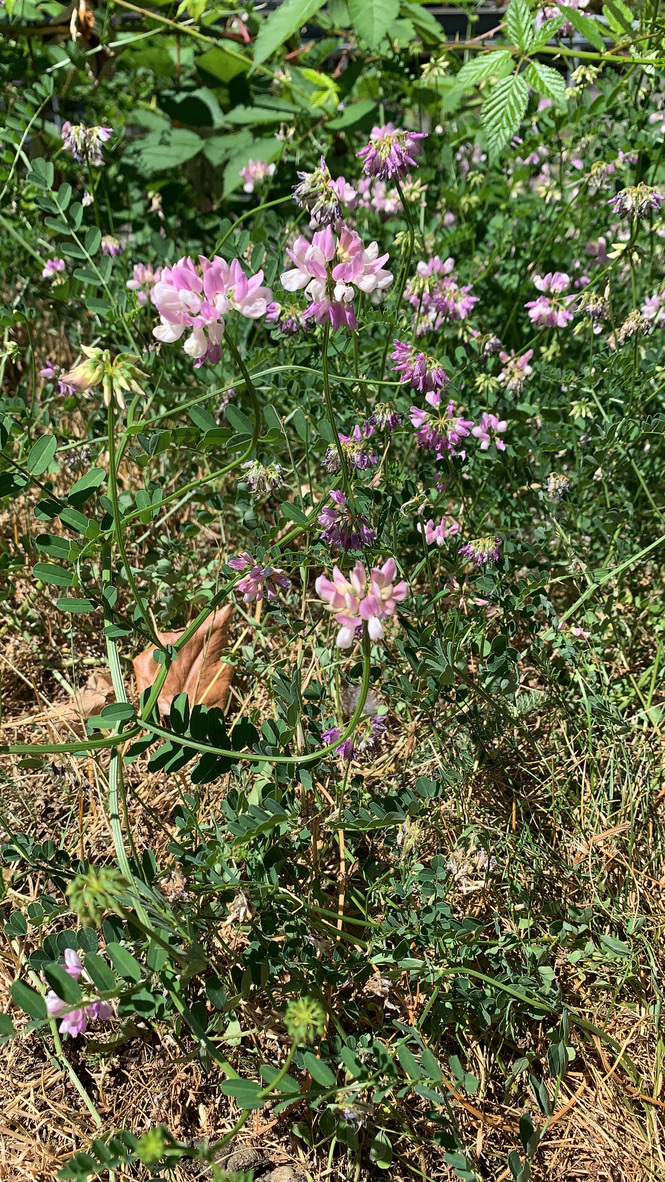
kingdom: Plantae
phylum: Tracheophyta
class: Magnoliopsida
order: Fabales
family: Fabaceae
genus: Coronilla
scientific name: Coronilla varia
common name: Crownvetch
